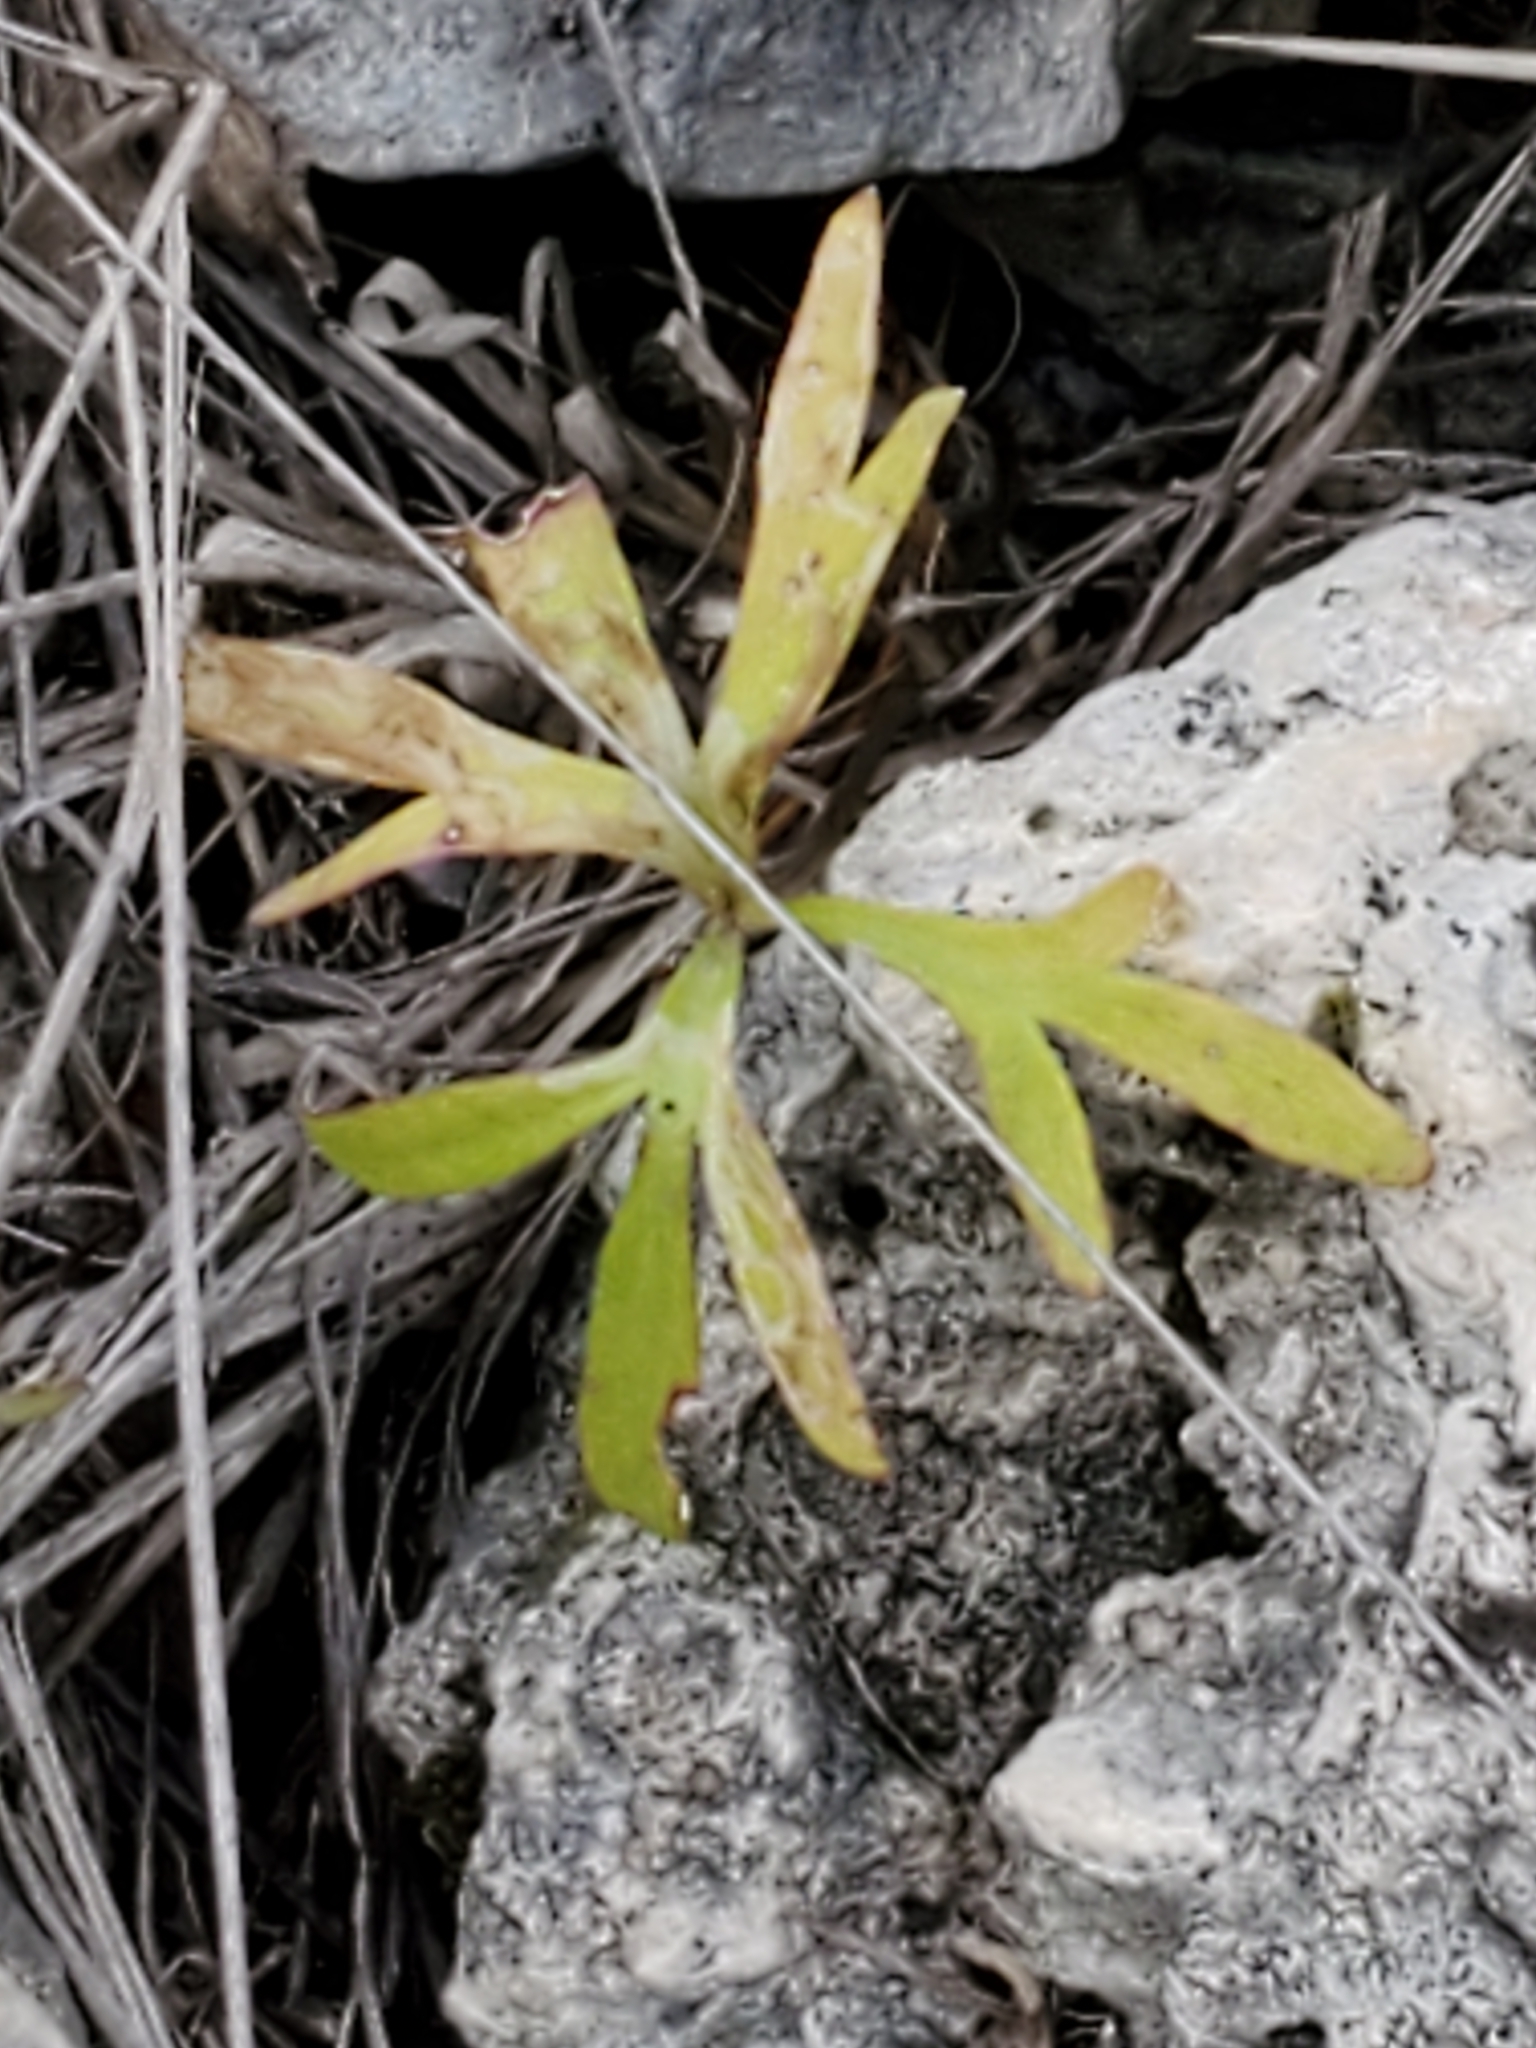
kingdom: Plantae
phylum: Tracheophyta
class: Magnoliopsida
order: Ranunculales
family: Ranunculaceae
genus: Anemone
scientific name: Anemone edwardsiana
